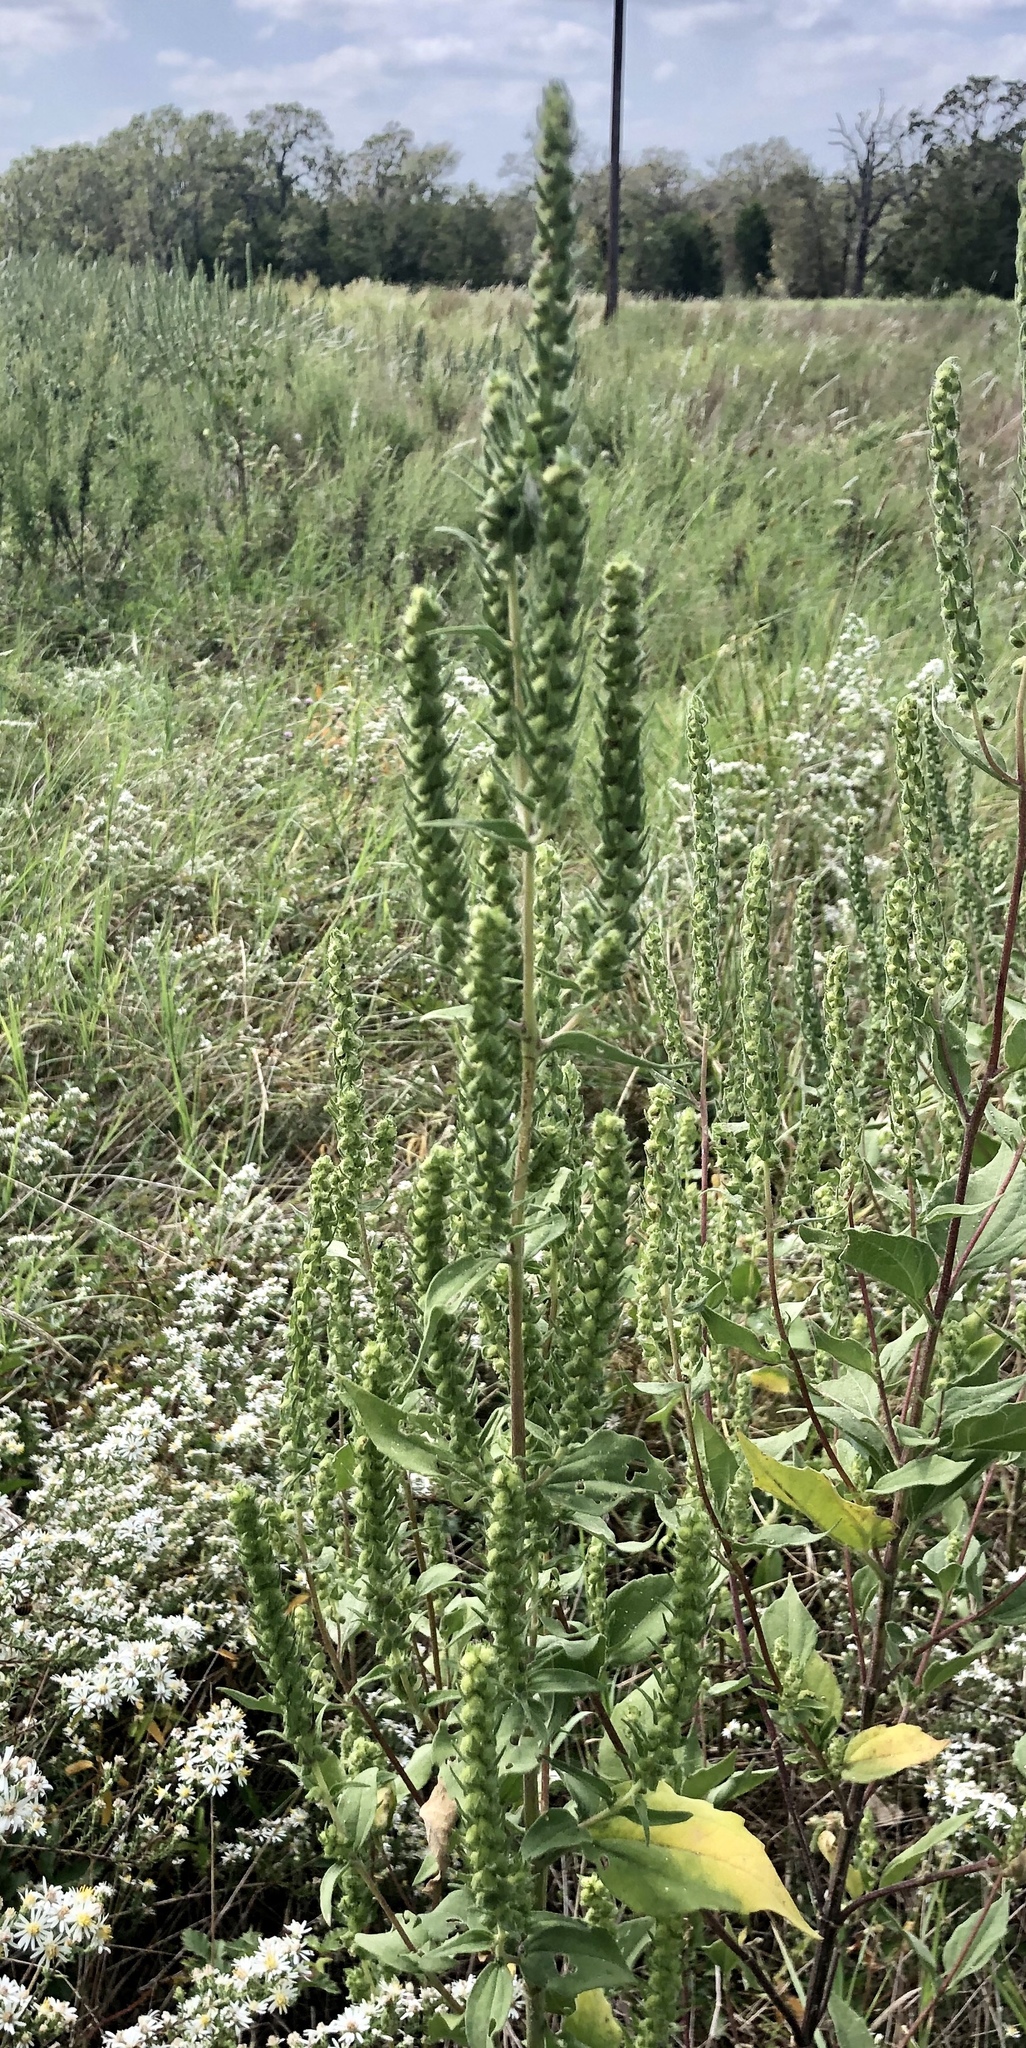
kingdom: Plantae
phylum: Tracheophyta
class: Magnoliopsida
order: Asterales
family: Asteraceae
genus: Iva
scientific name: Iva annua
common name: Marsh-elder
